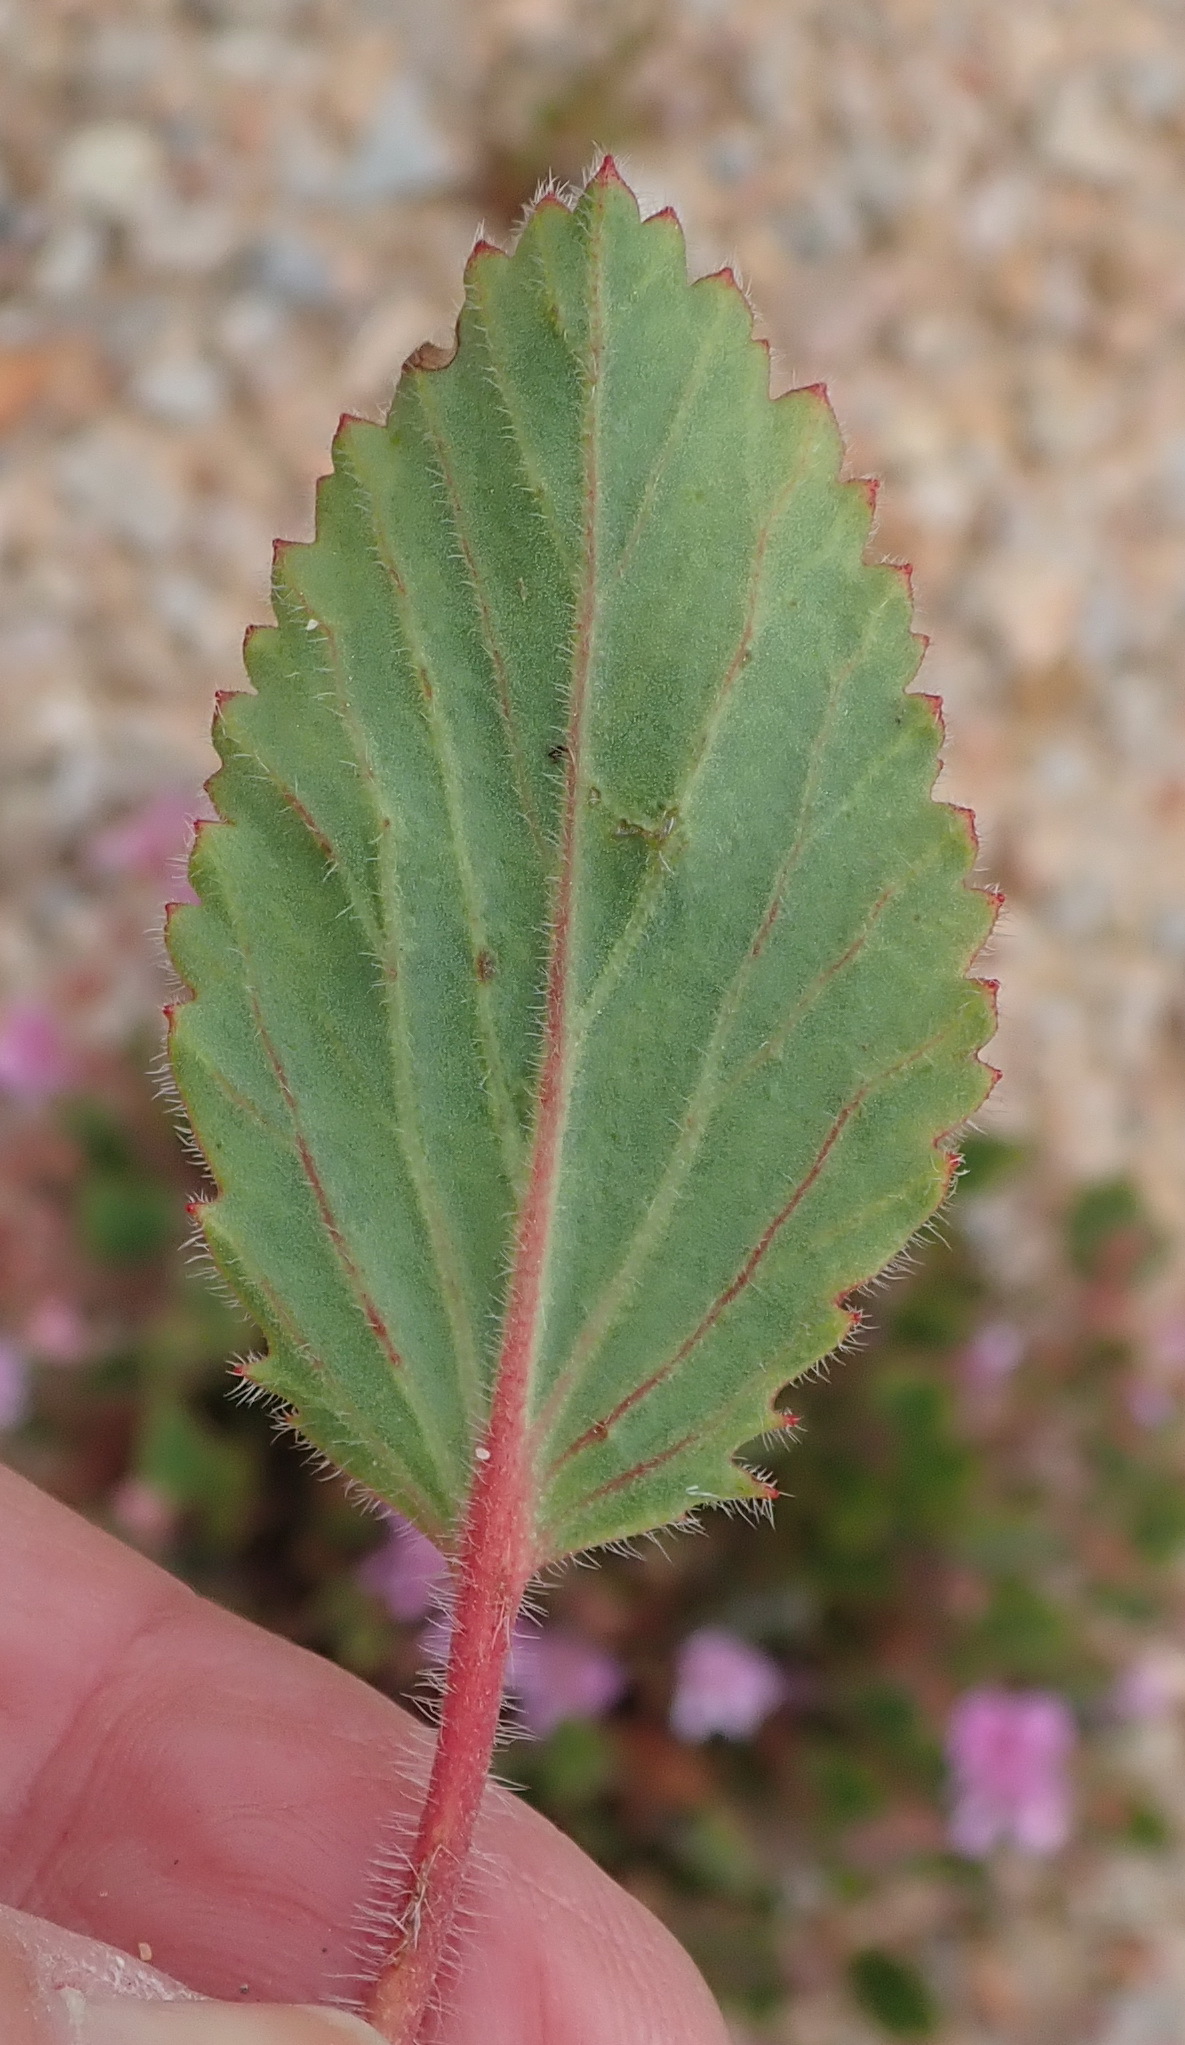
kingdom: Plantae
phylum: Tracheophyta
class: Magnoliopsida
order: Geraniales
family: Geraniaceae
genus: Pelargonium
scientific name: Pelargonium ovale
